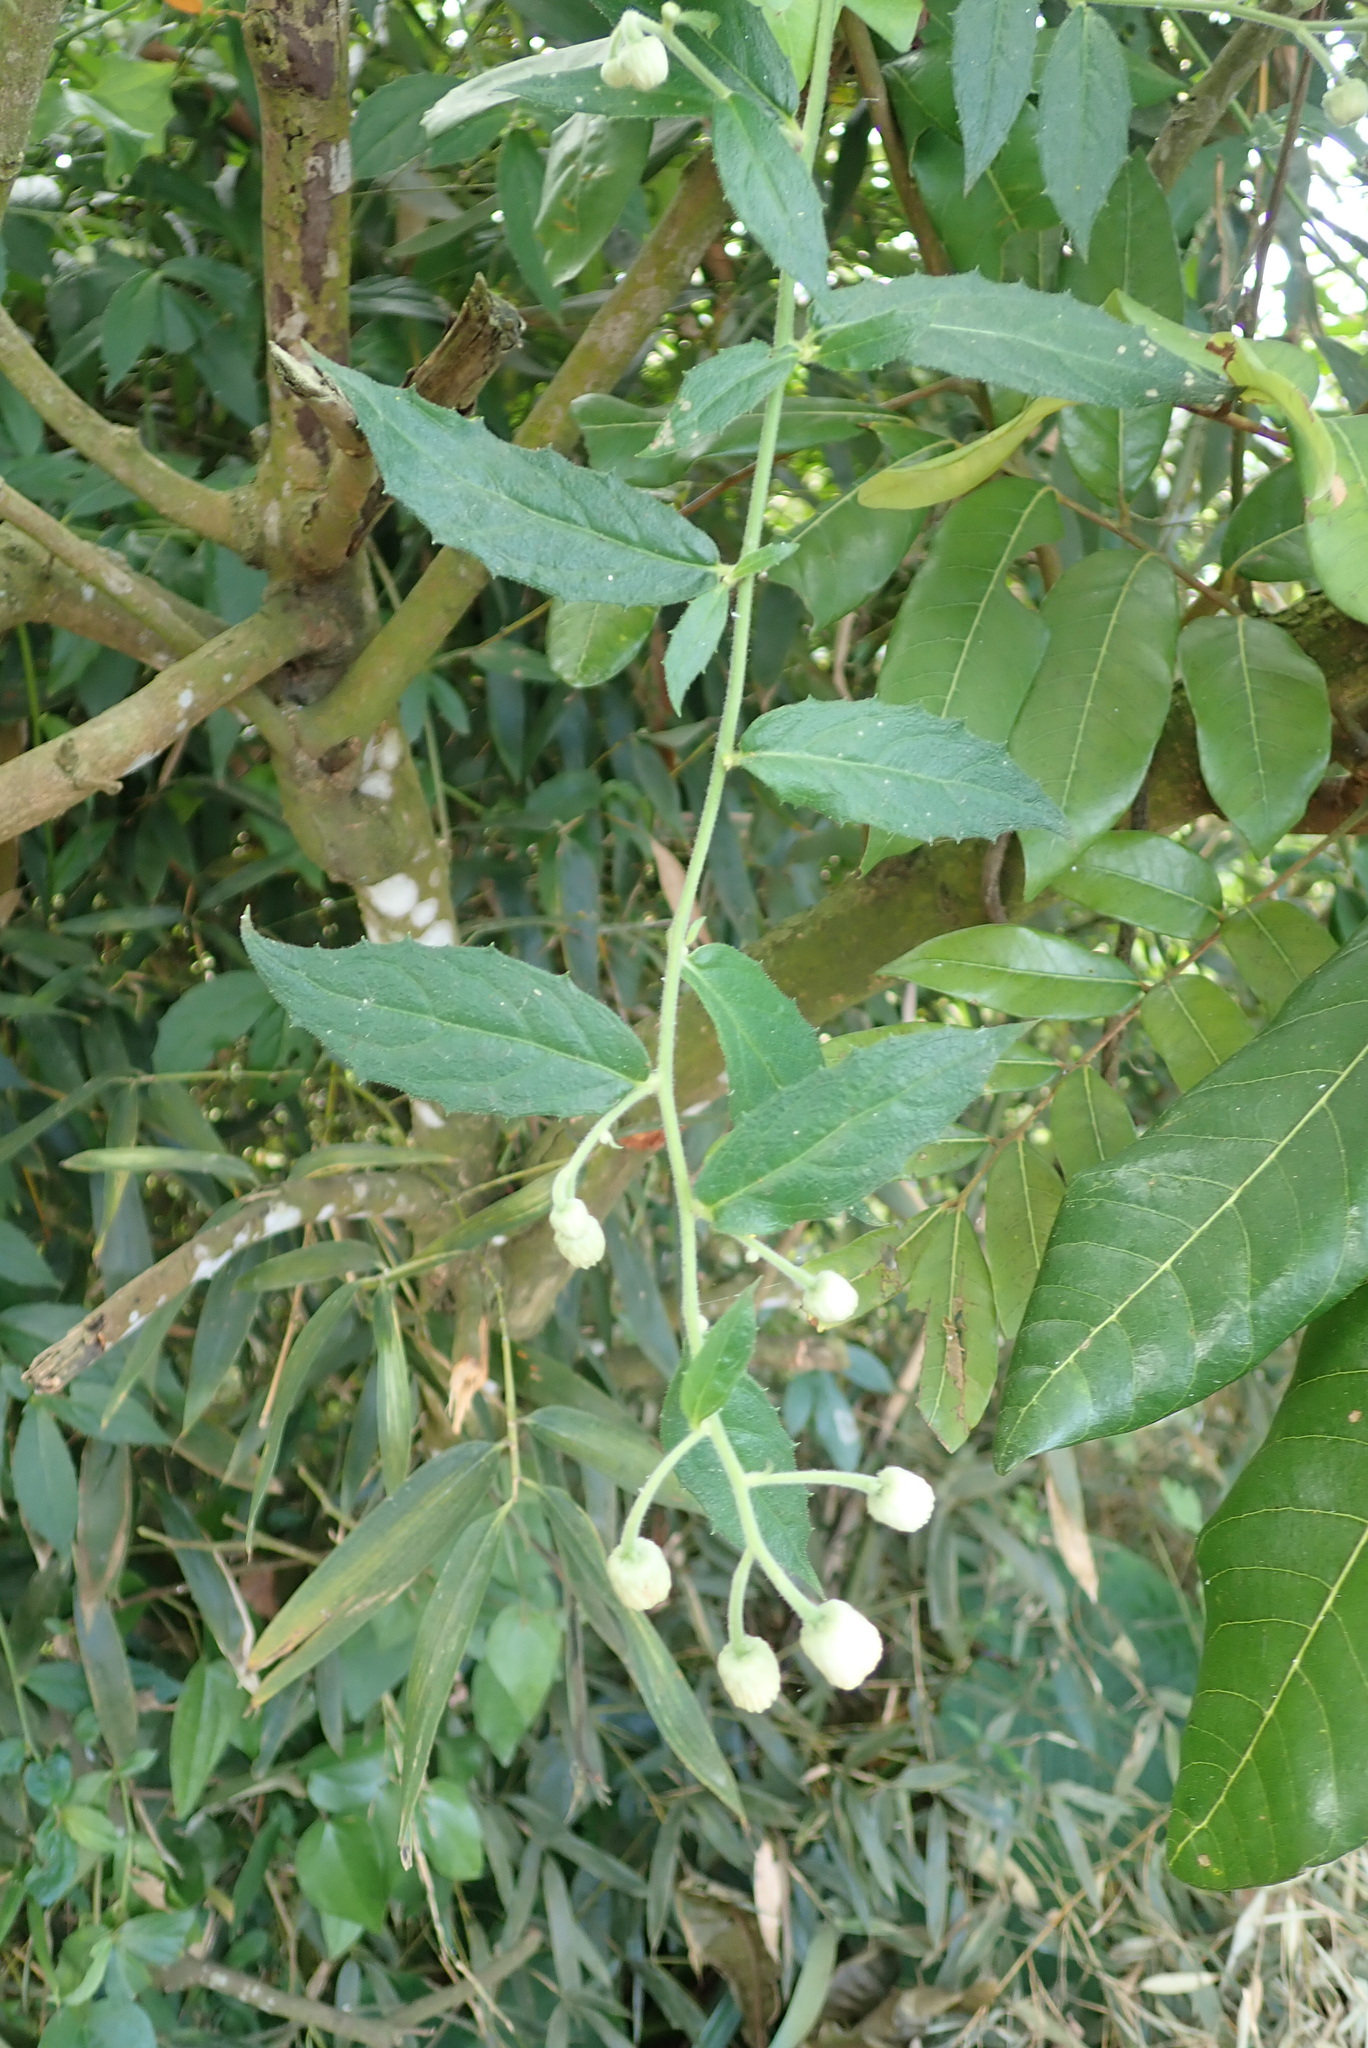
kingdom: Plantae
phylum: Tracheophyta
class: Magnoliopsida
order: Asterales
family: Asteraceae
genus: Blumea
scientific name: Blumea megacephala
